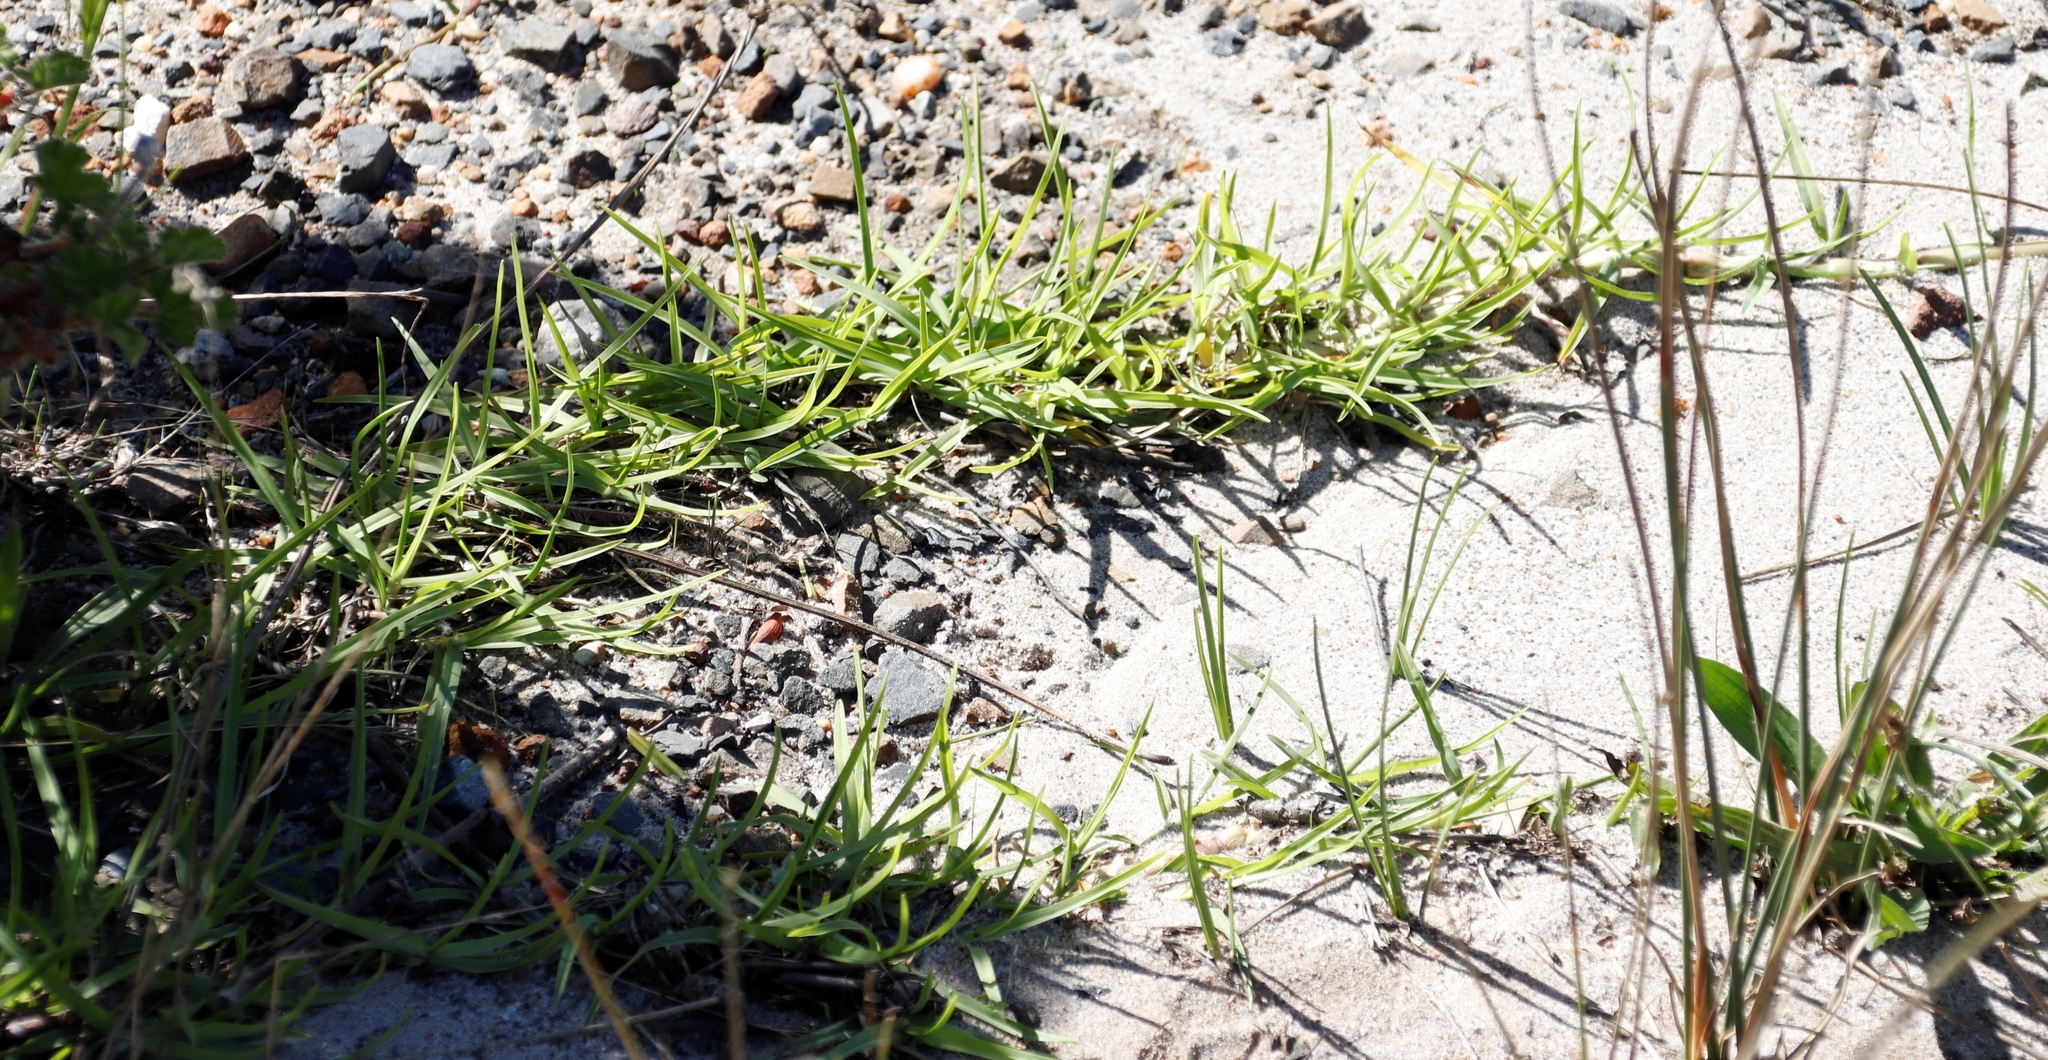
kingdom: Plantae
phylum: Tracheophyta
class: Liliopsida
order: Poales
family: Poaceae
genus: Cenchrus
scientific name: Cenchrus clandestinus
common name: Kikuyugrass
